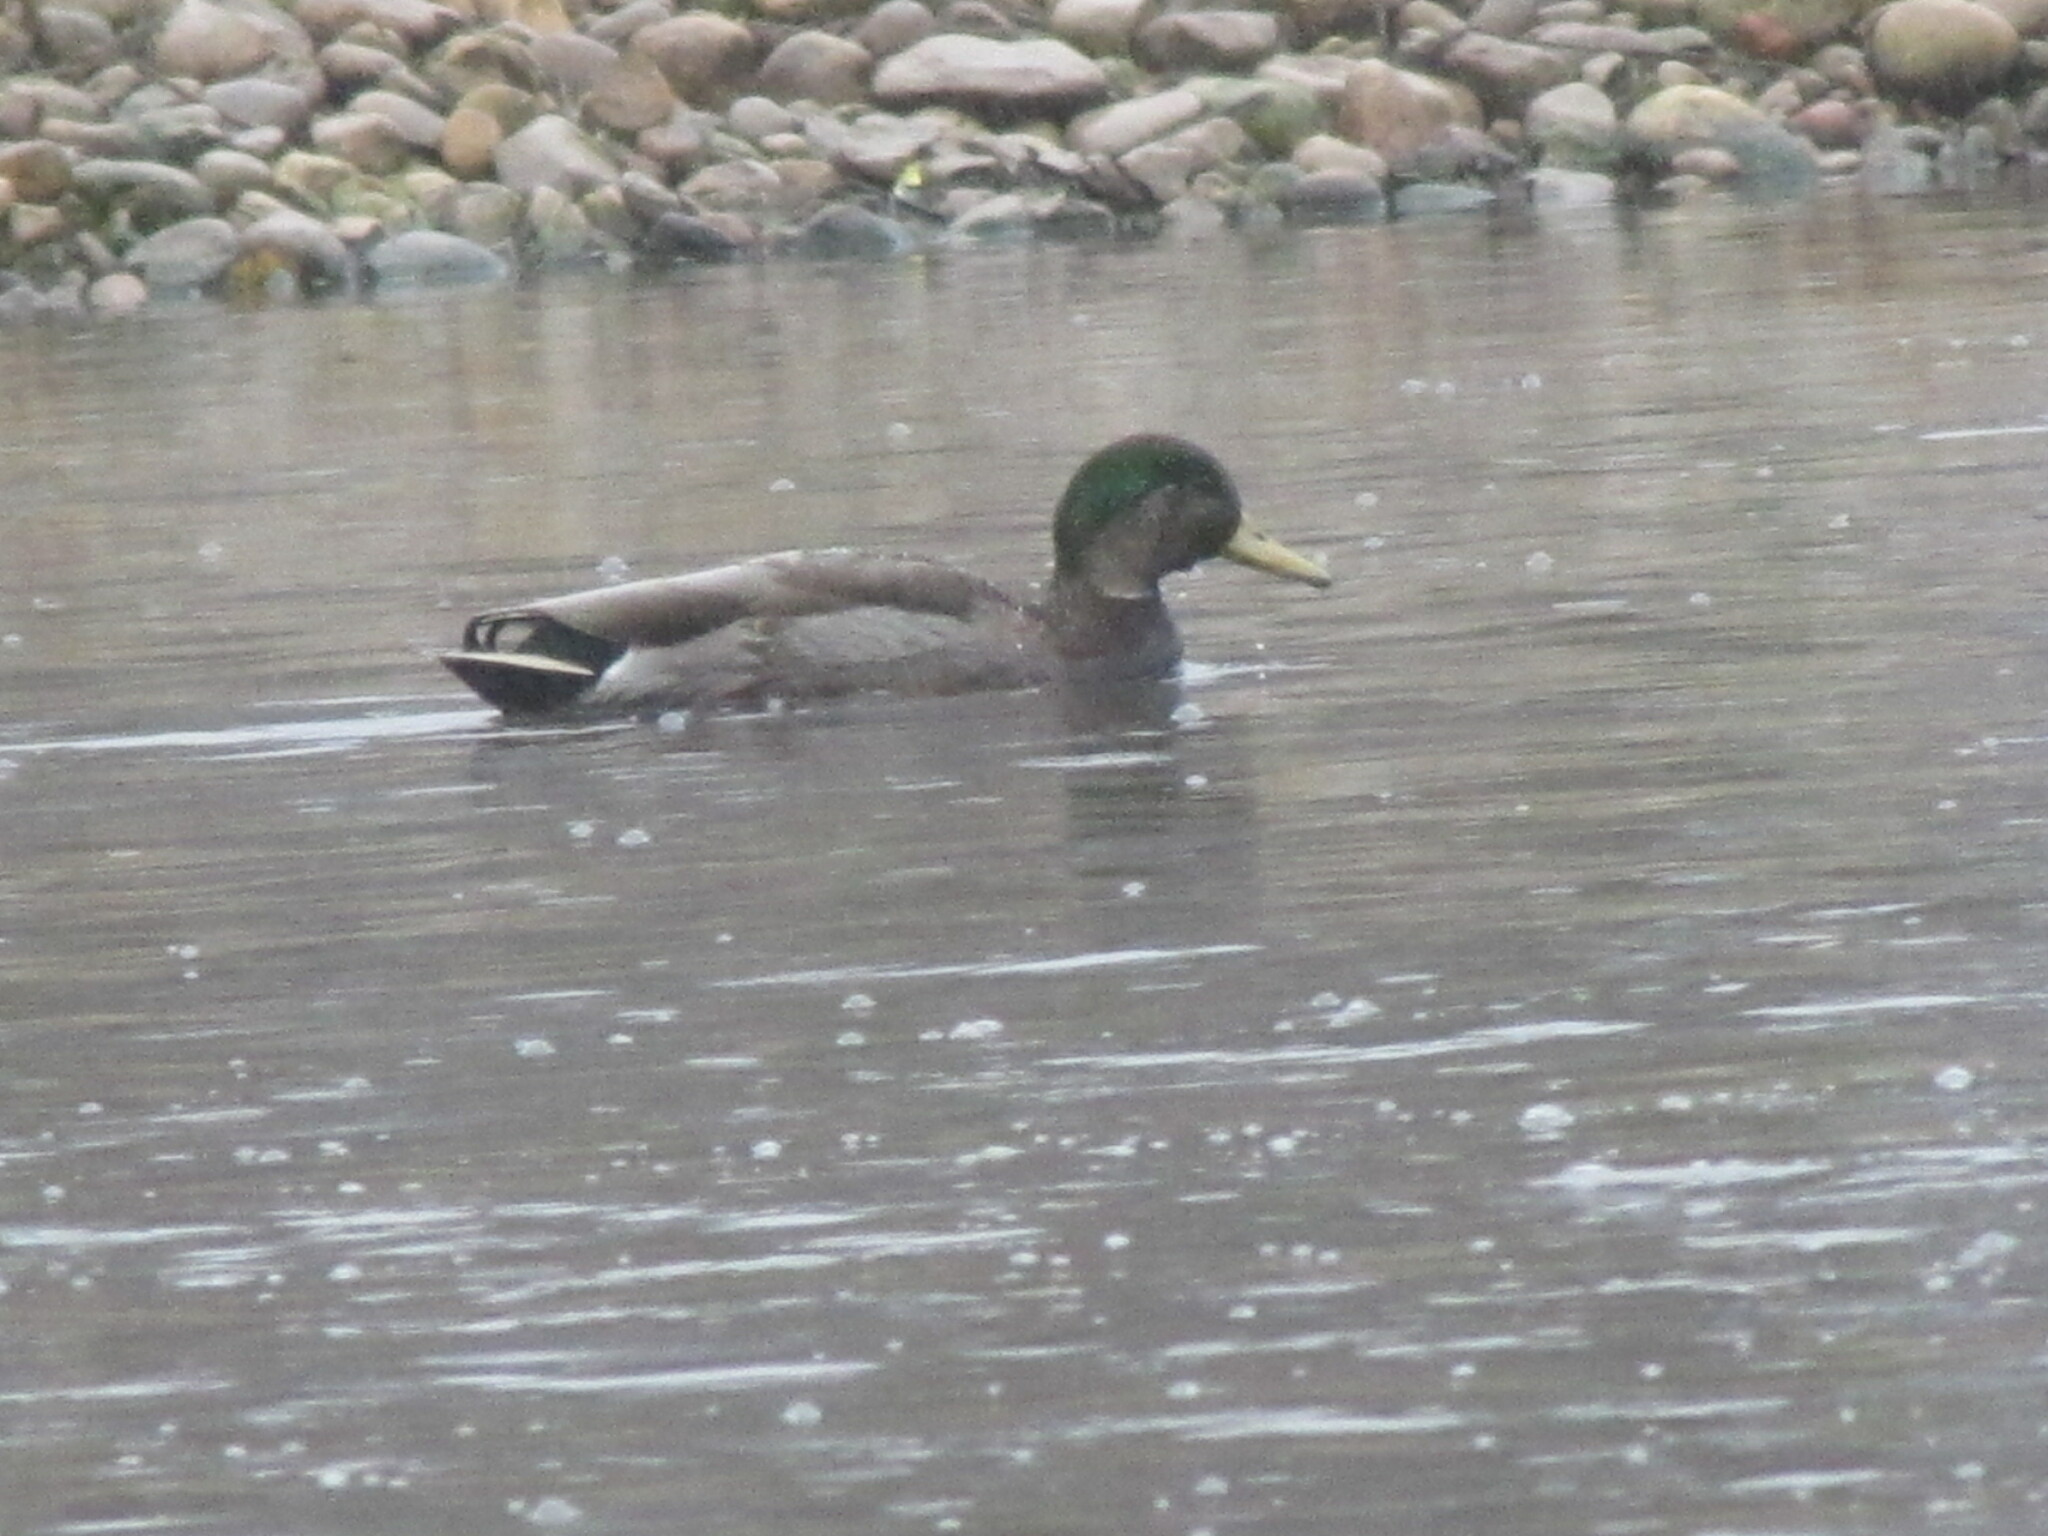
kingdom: Animalia
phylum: Chordata
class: Aves
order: Anseriformes
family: Anatidae
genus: Anas
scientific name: Anas
